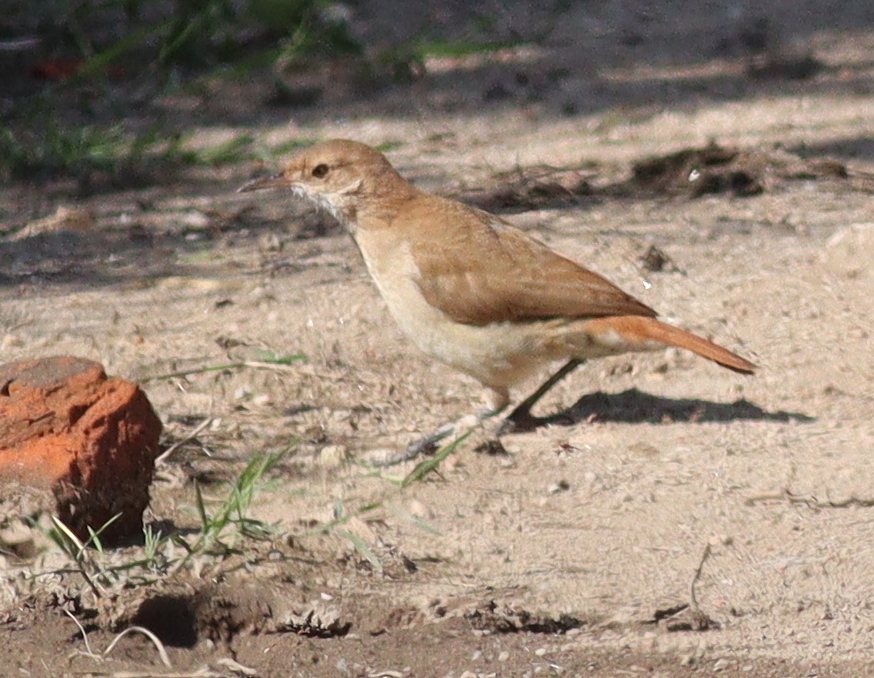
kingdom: Animalia
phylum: Chordata
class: Aves
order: Passeriformes
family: Furnariidae
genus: Furnarius
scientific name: Furnarius rufus
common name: Rufous hornero
